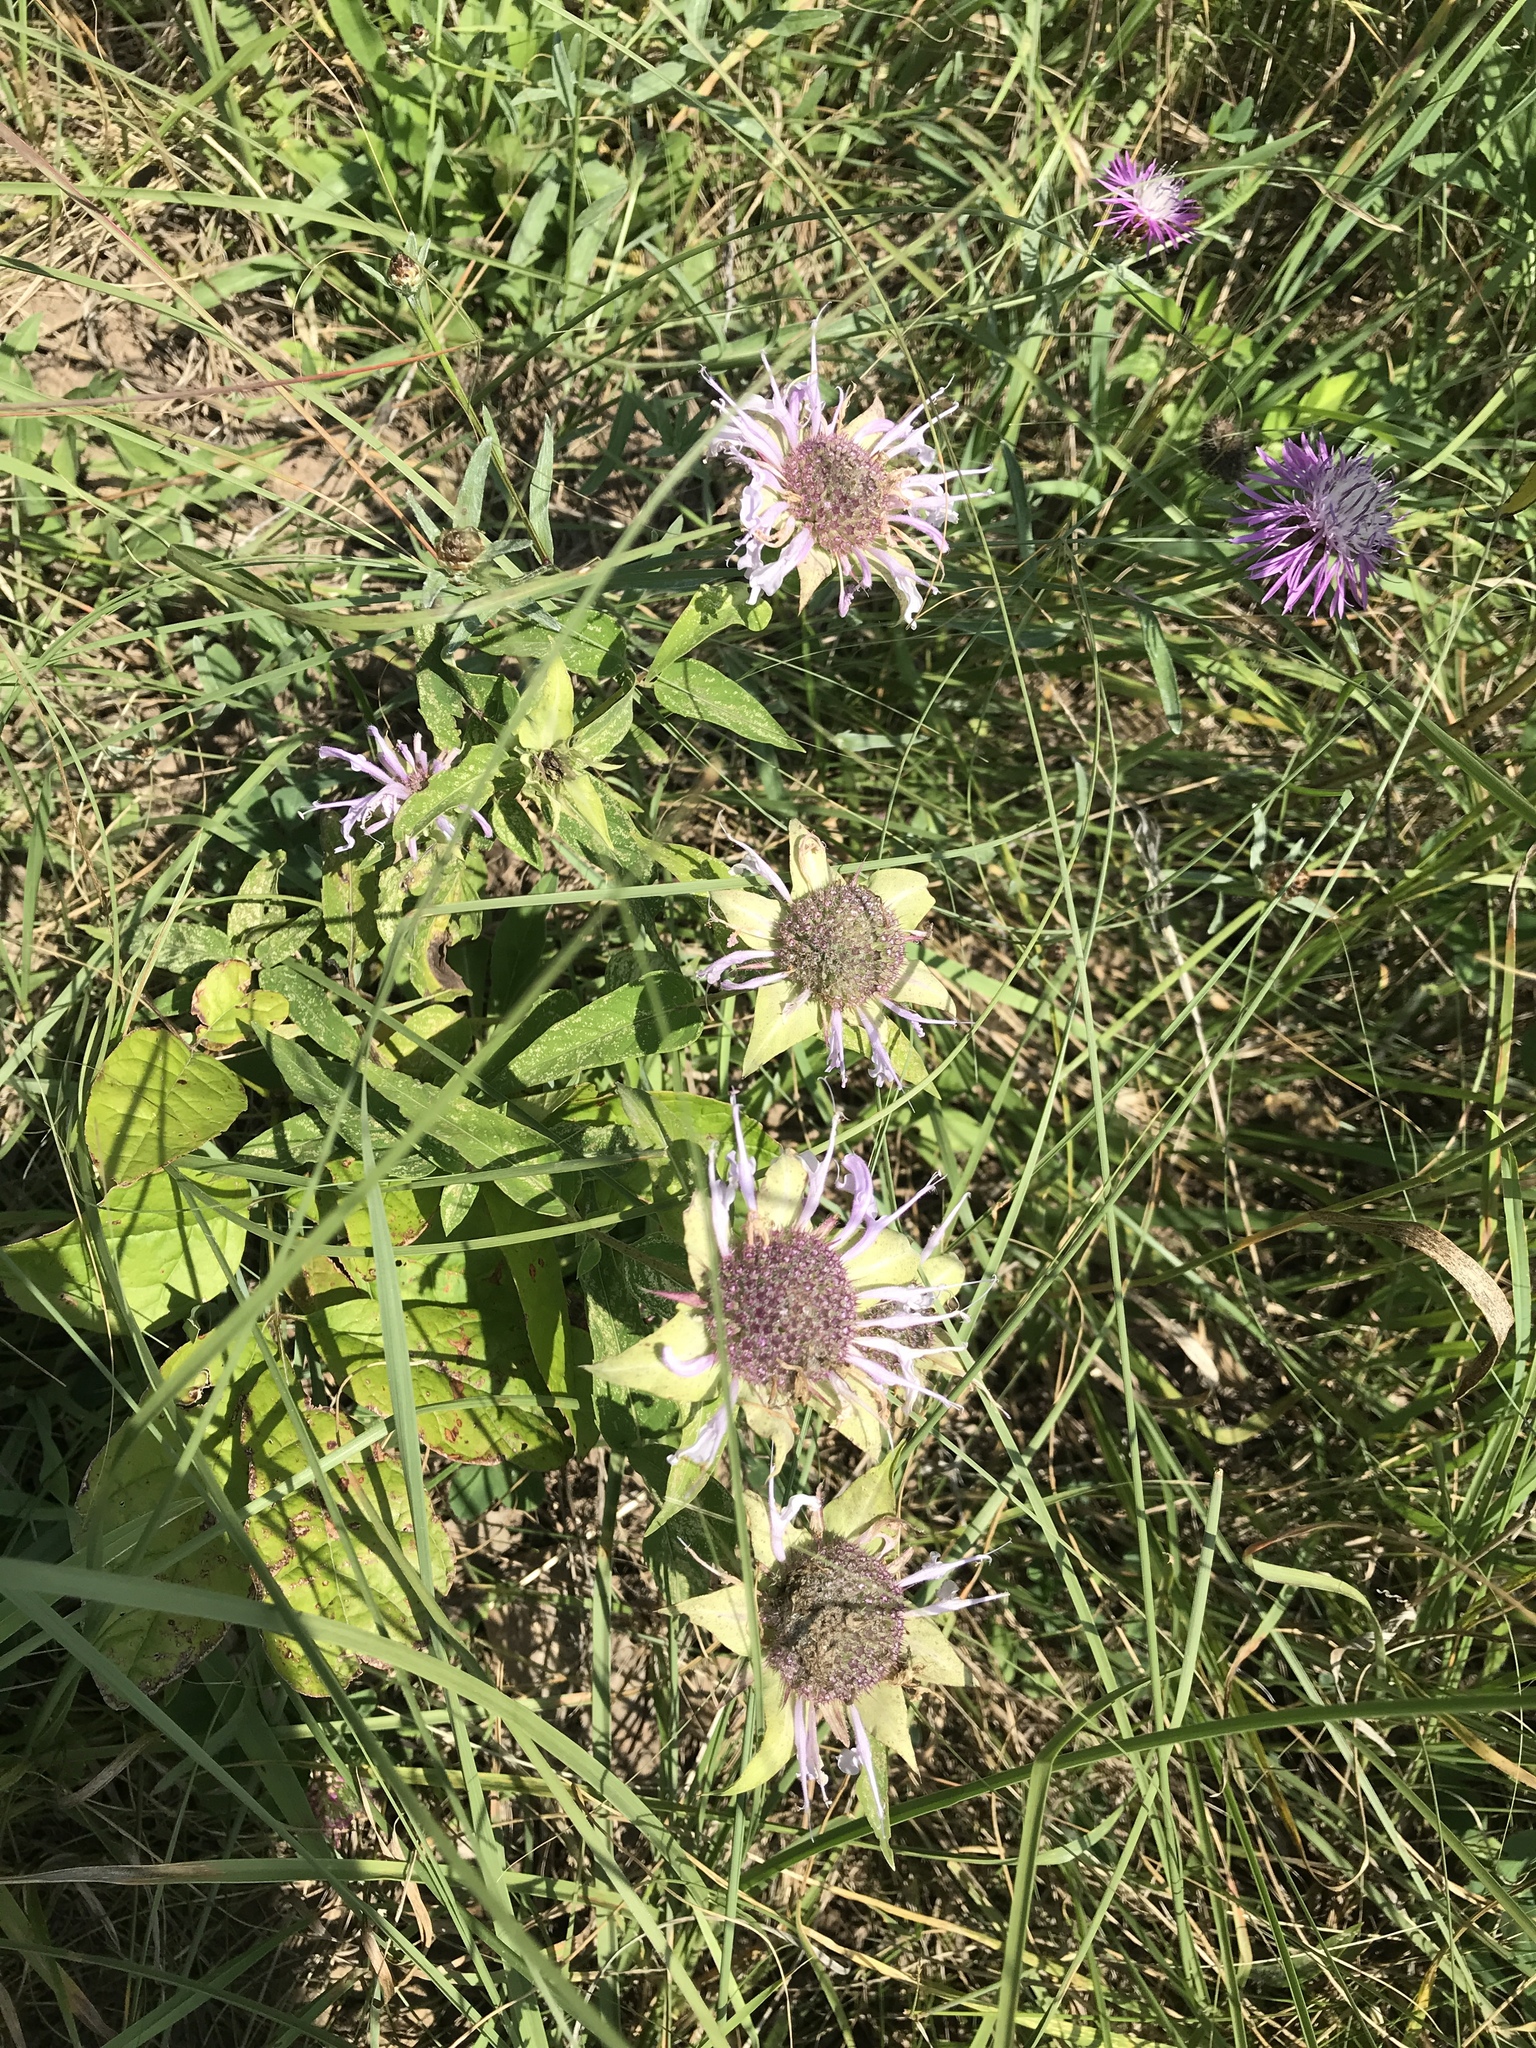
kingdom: Plantae
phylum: Tracheophyta
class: Magnoliopsida
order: Lamiales
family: Lamiaceae
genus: Monarda
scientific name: Monarda fistulosa
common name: Purple beebalm
